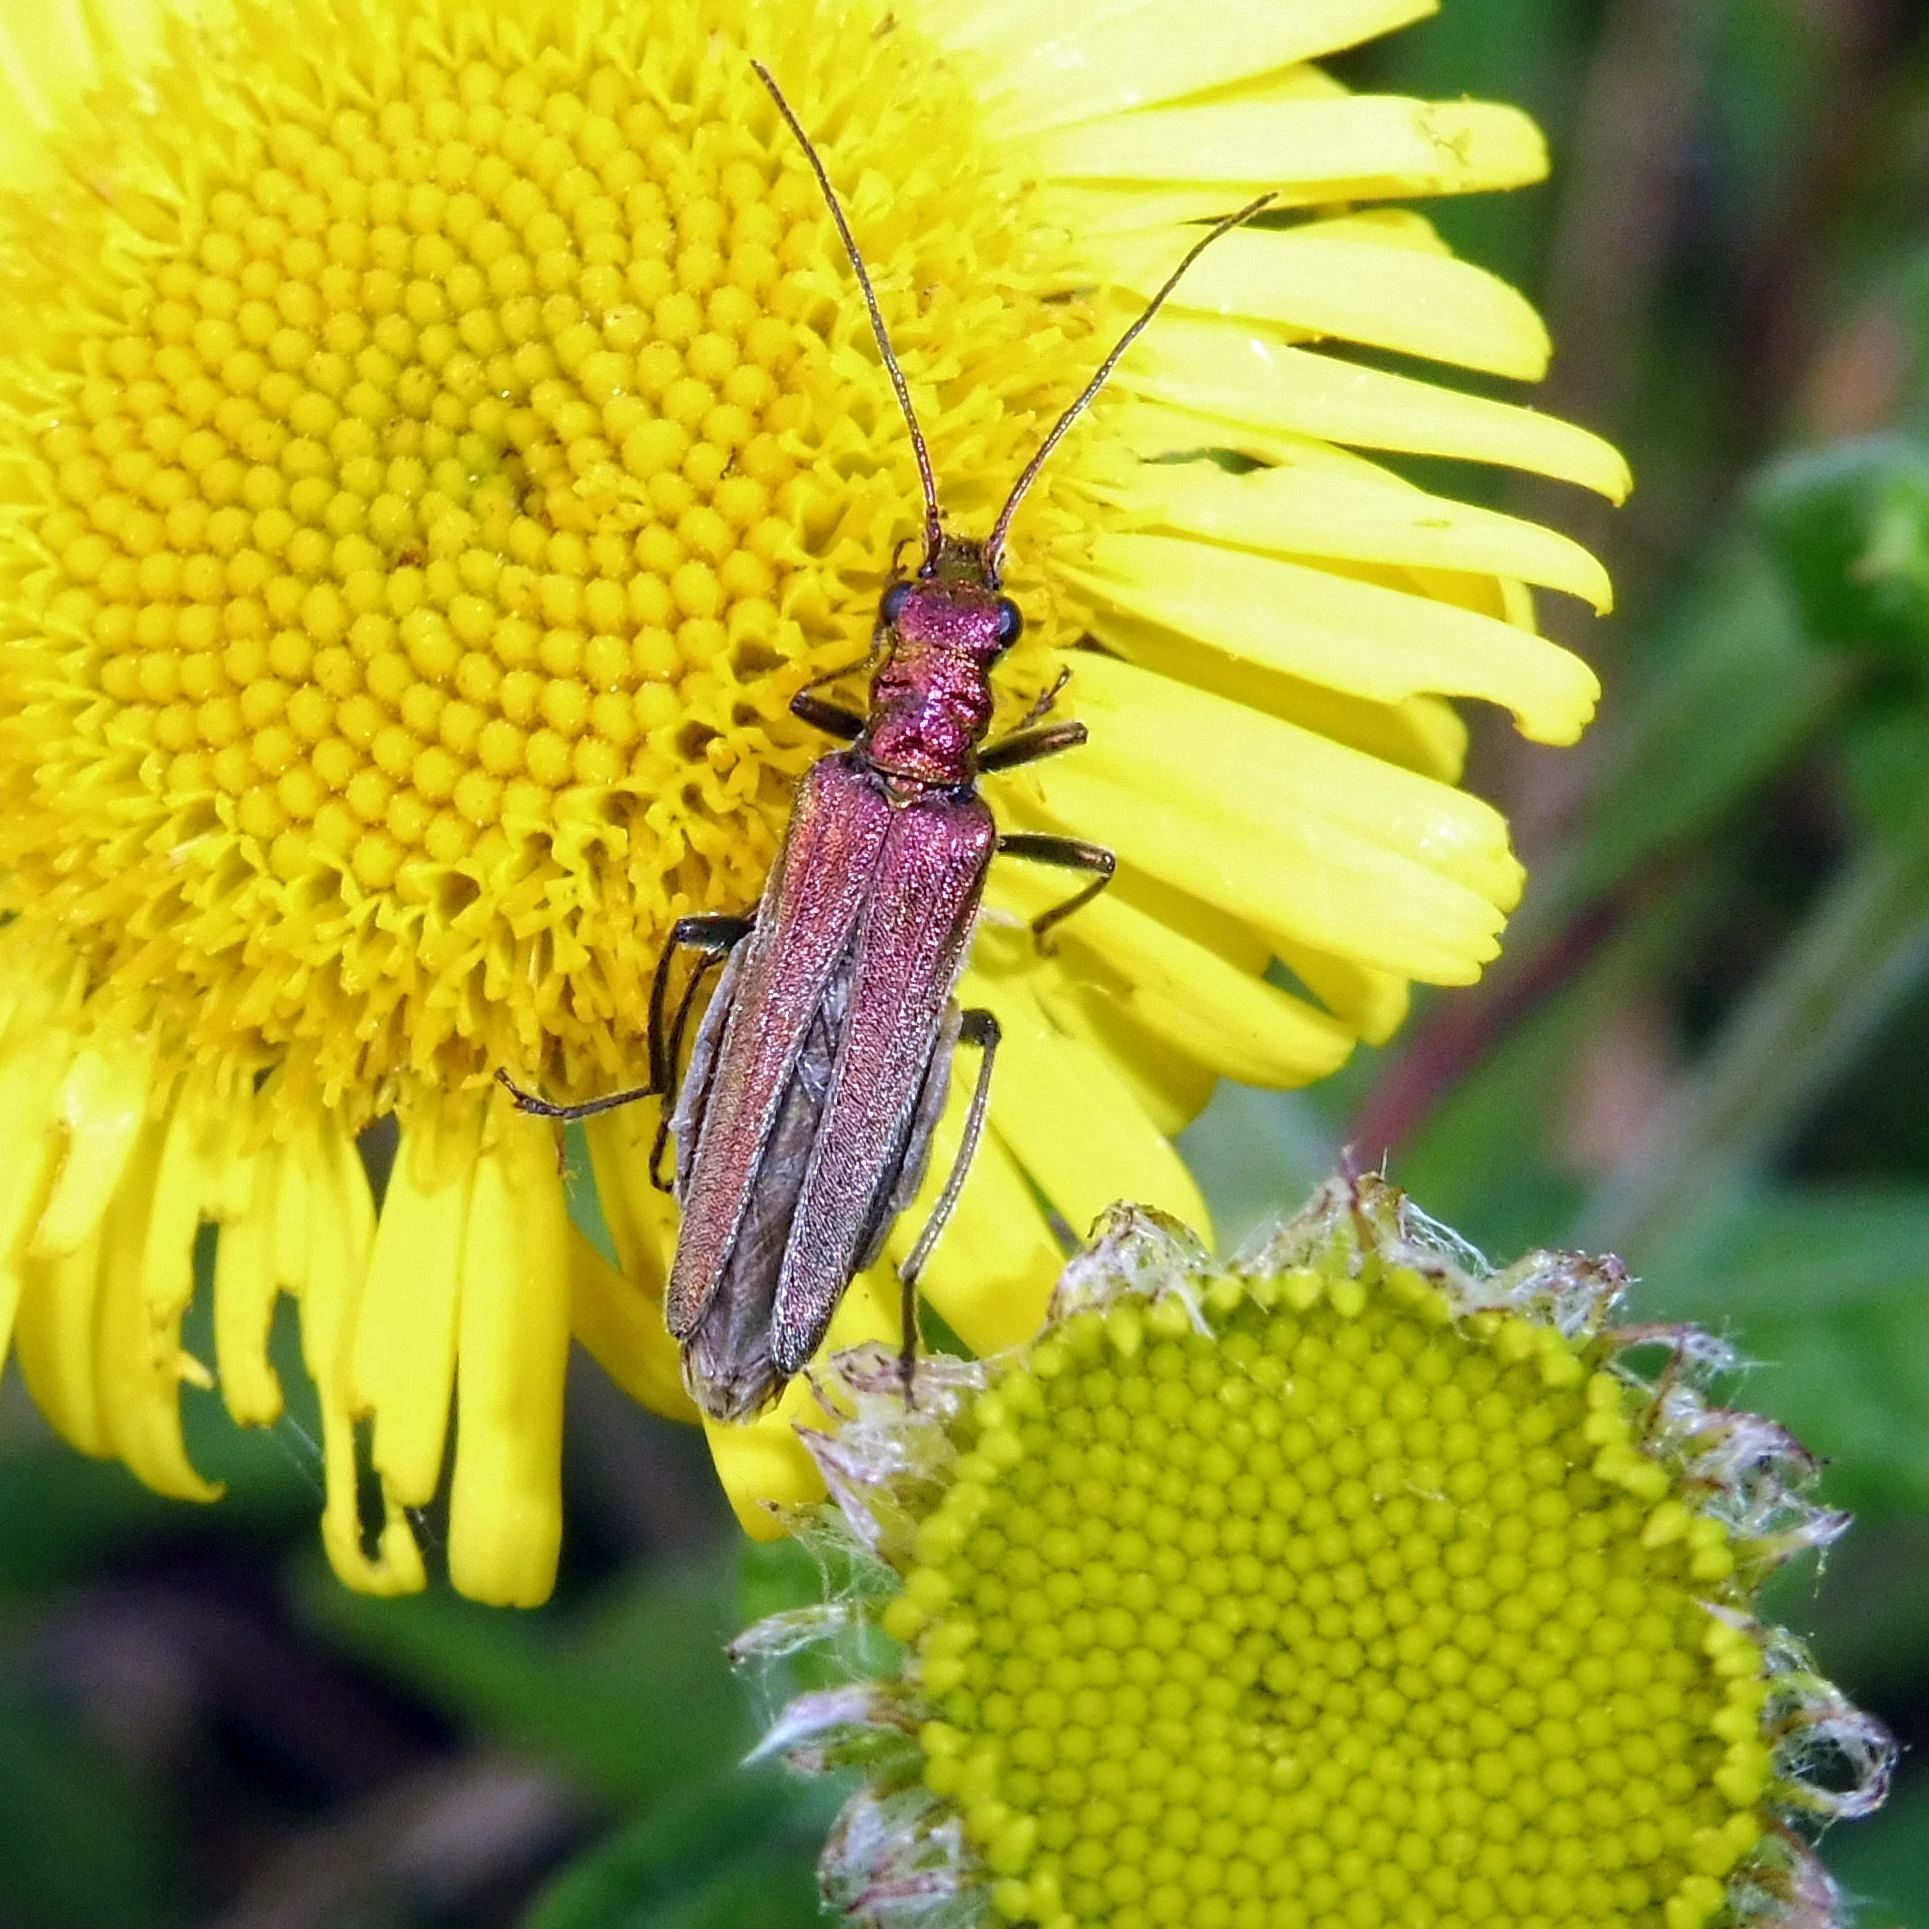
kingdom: Animalia
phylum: Arthropoda
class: Insecta
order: Coleoptera
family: Oedemeridae
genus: Oedemera
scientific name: Oedemera nobilis
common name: Swollen-thighed beetle
